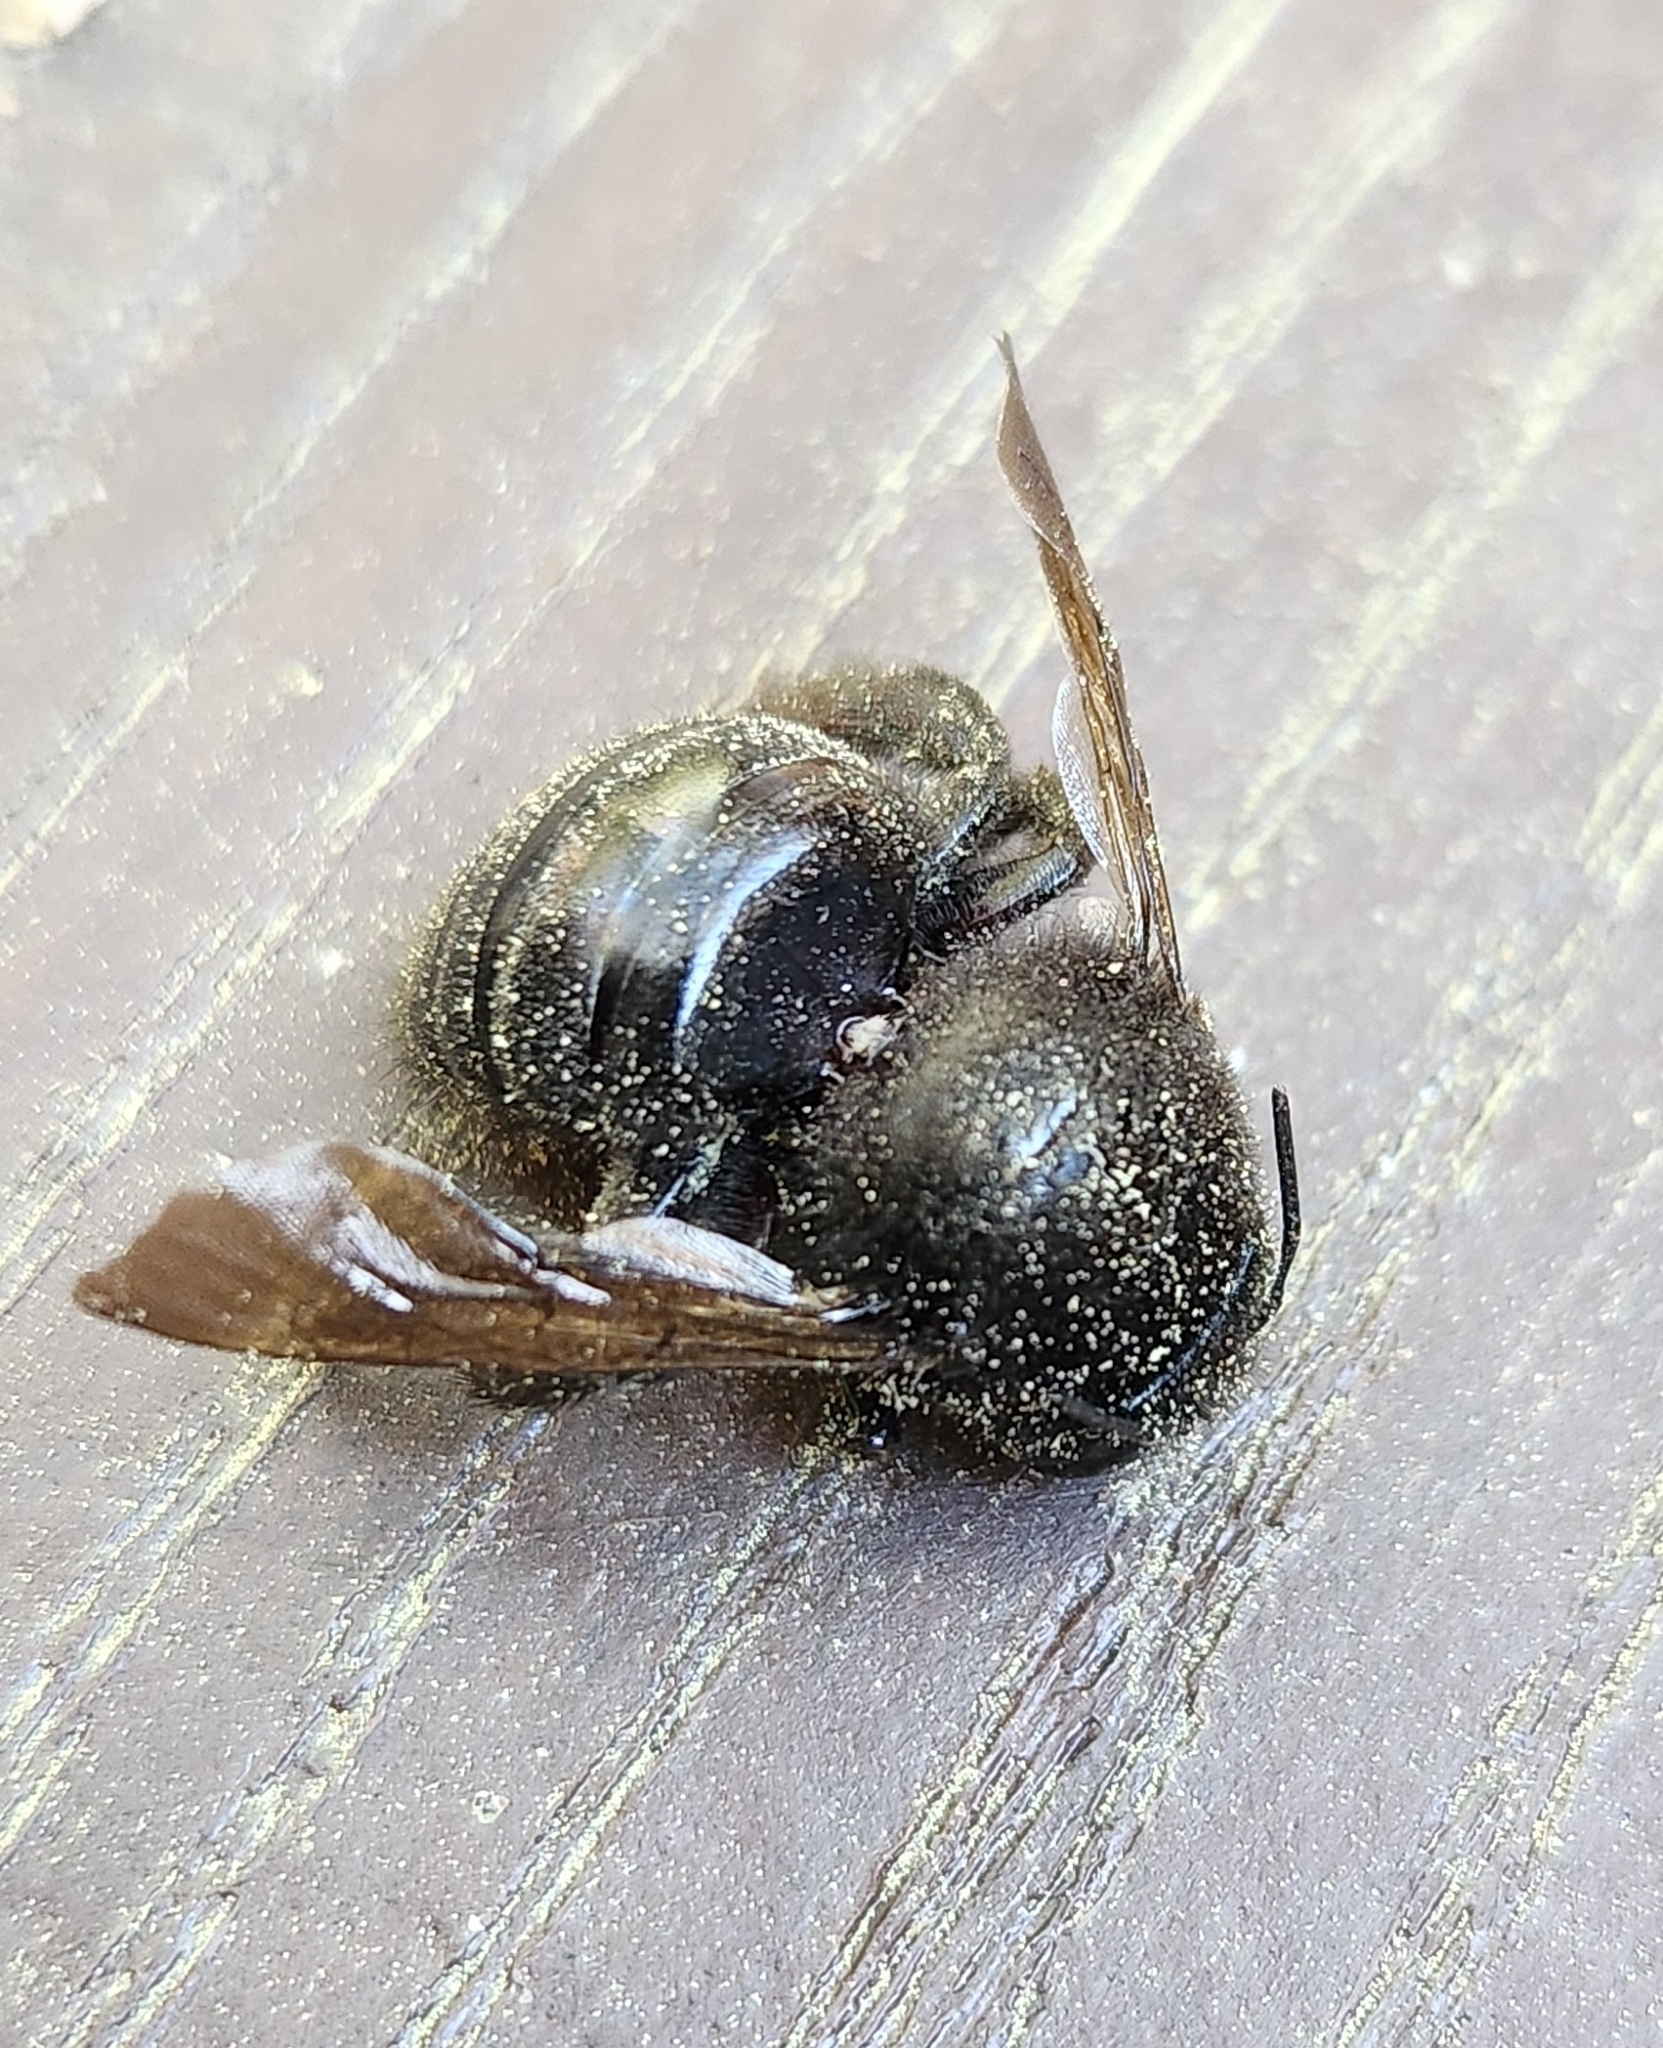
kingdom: Animalia
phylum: Arthropoda
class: Insecta
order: Hymenoptera
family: Apidae
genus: Xylocopa
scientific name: Xylocopa sonorina
